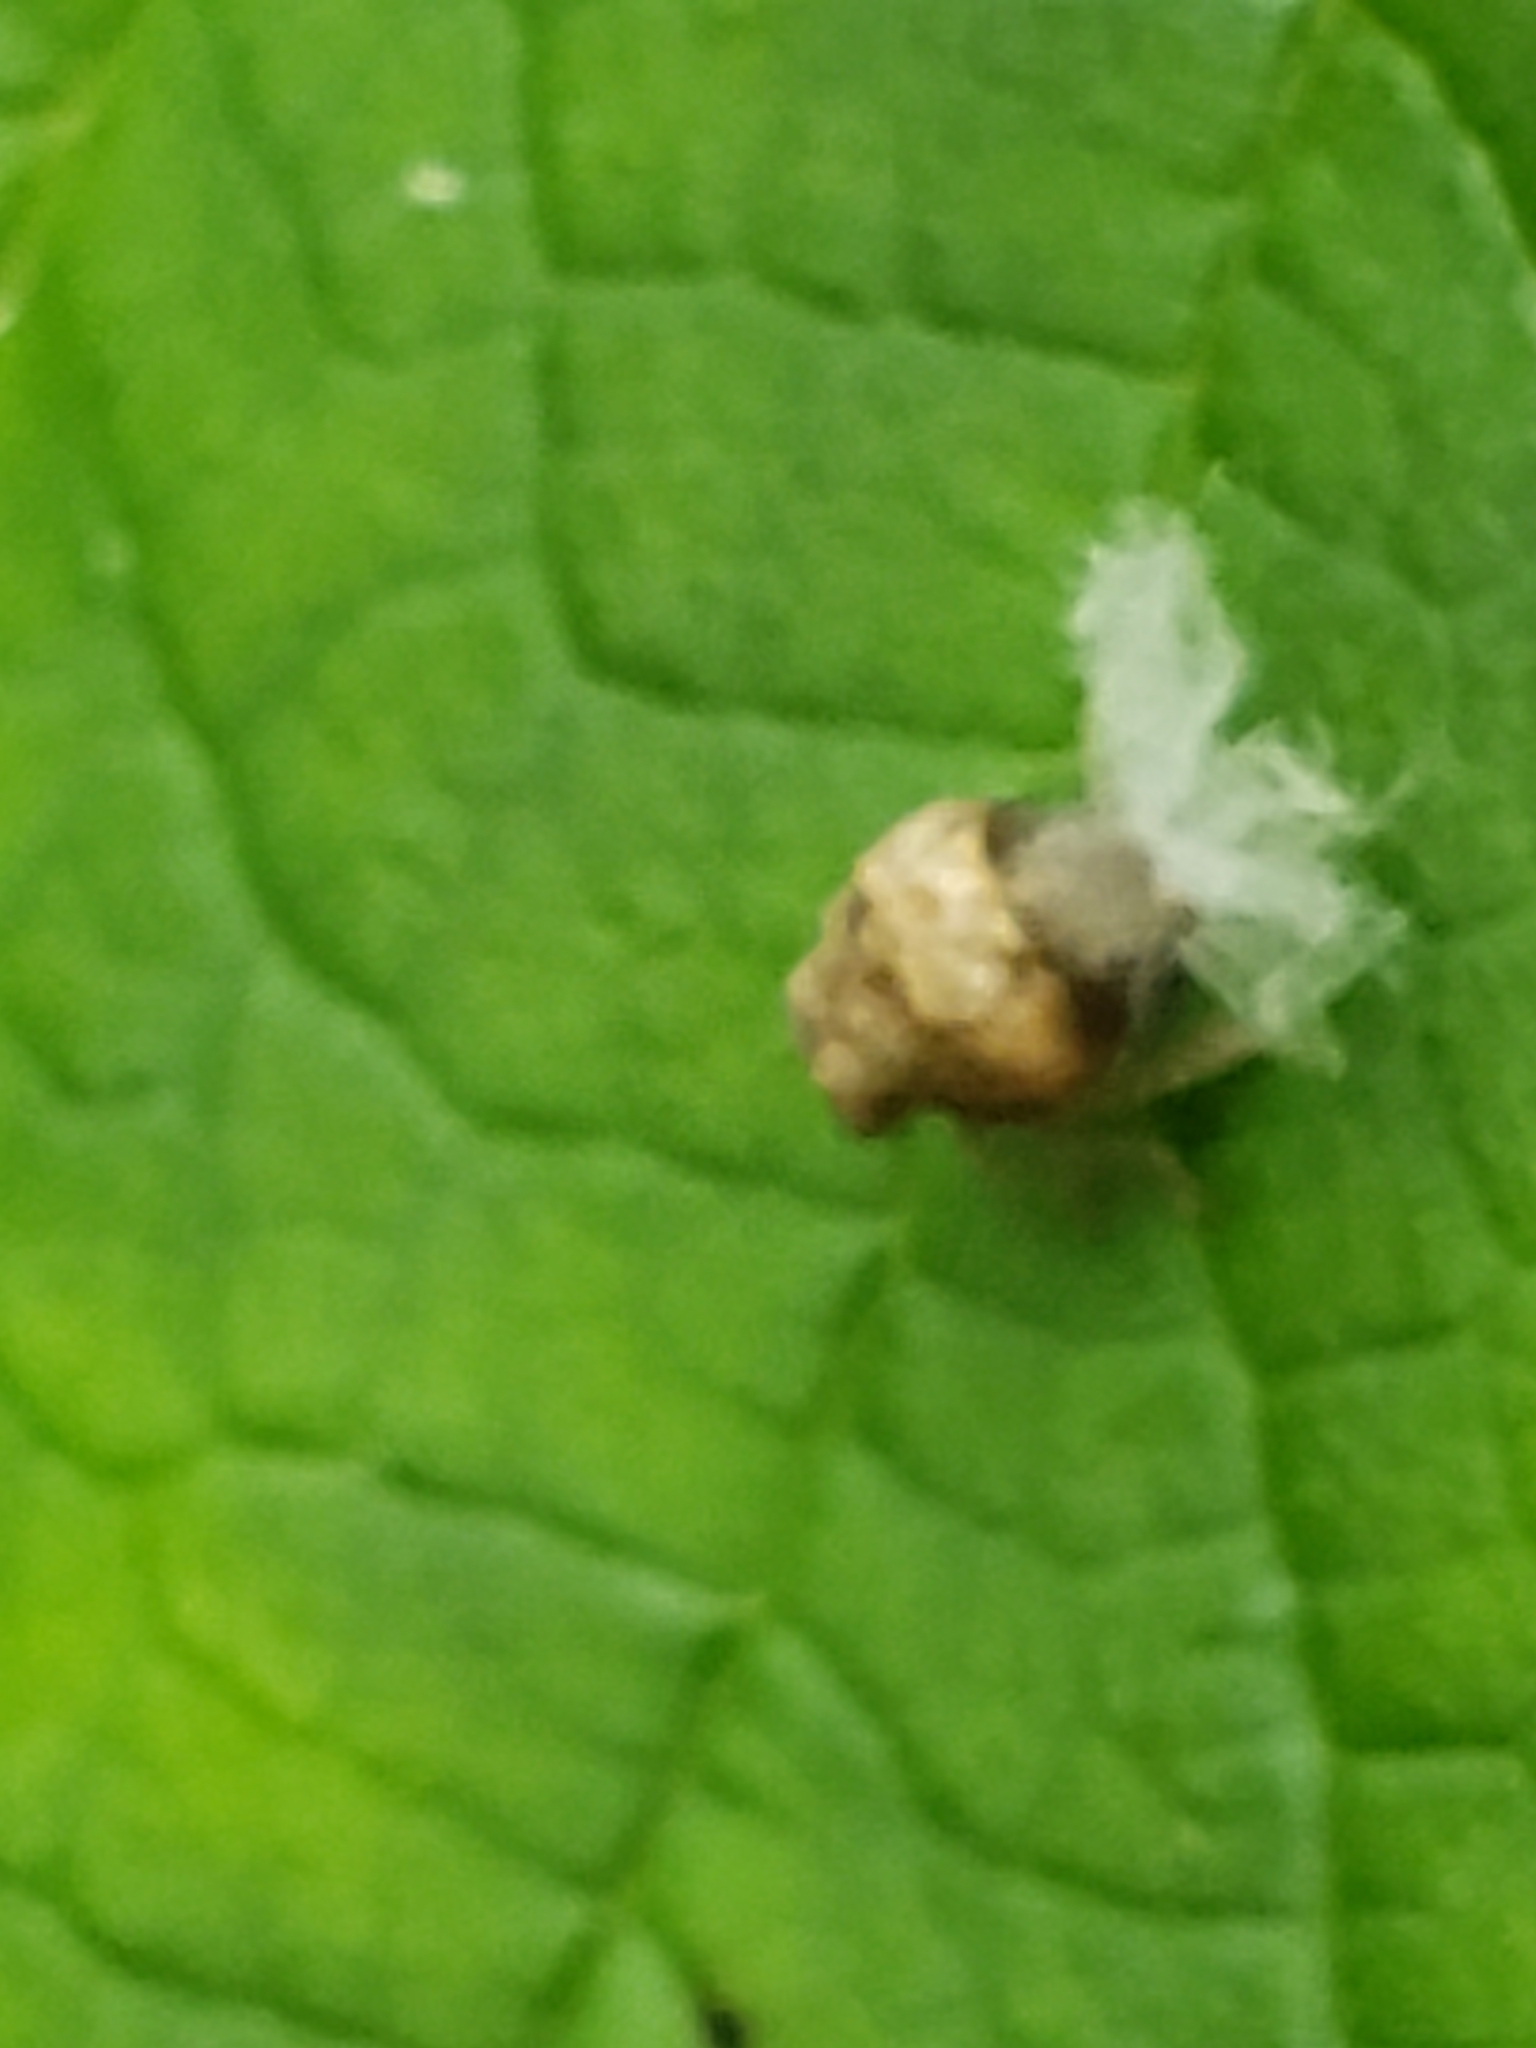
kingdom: Animalia
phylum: Arthropoda
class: Insecta
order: Hemiptera
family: Acanaloniidae
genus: Acanalonia
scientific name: Acanalonia bivittata
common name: Two-striped planthopper
